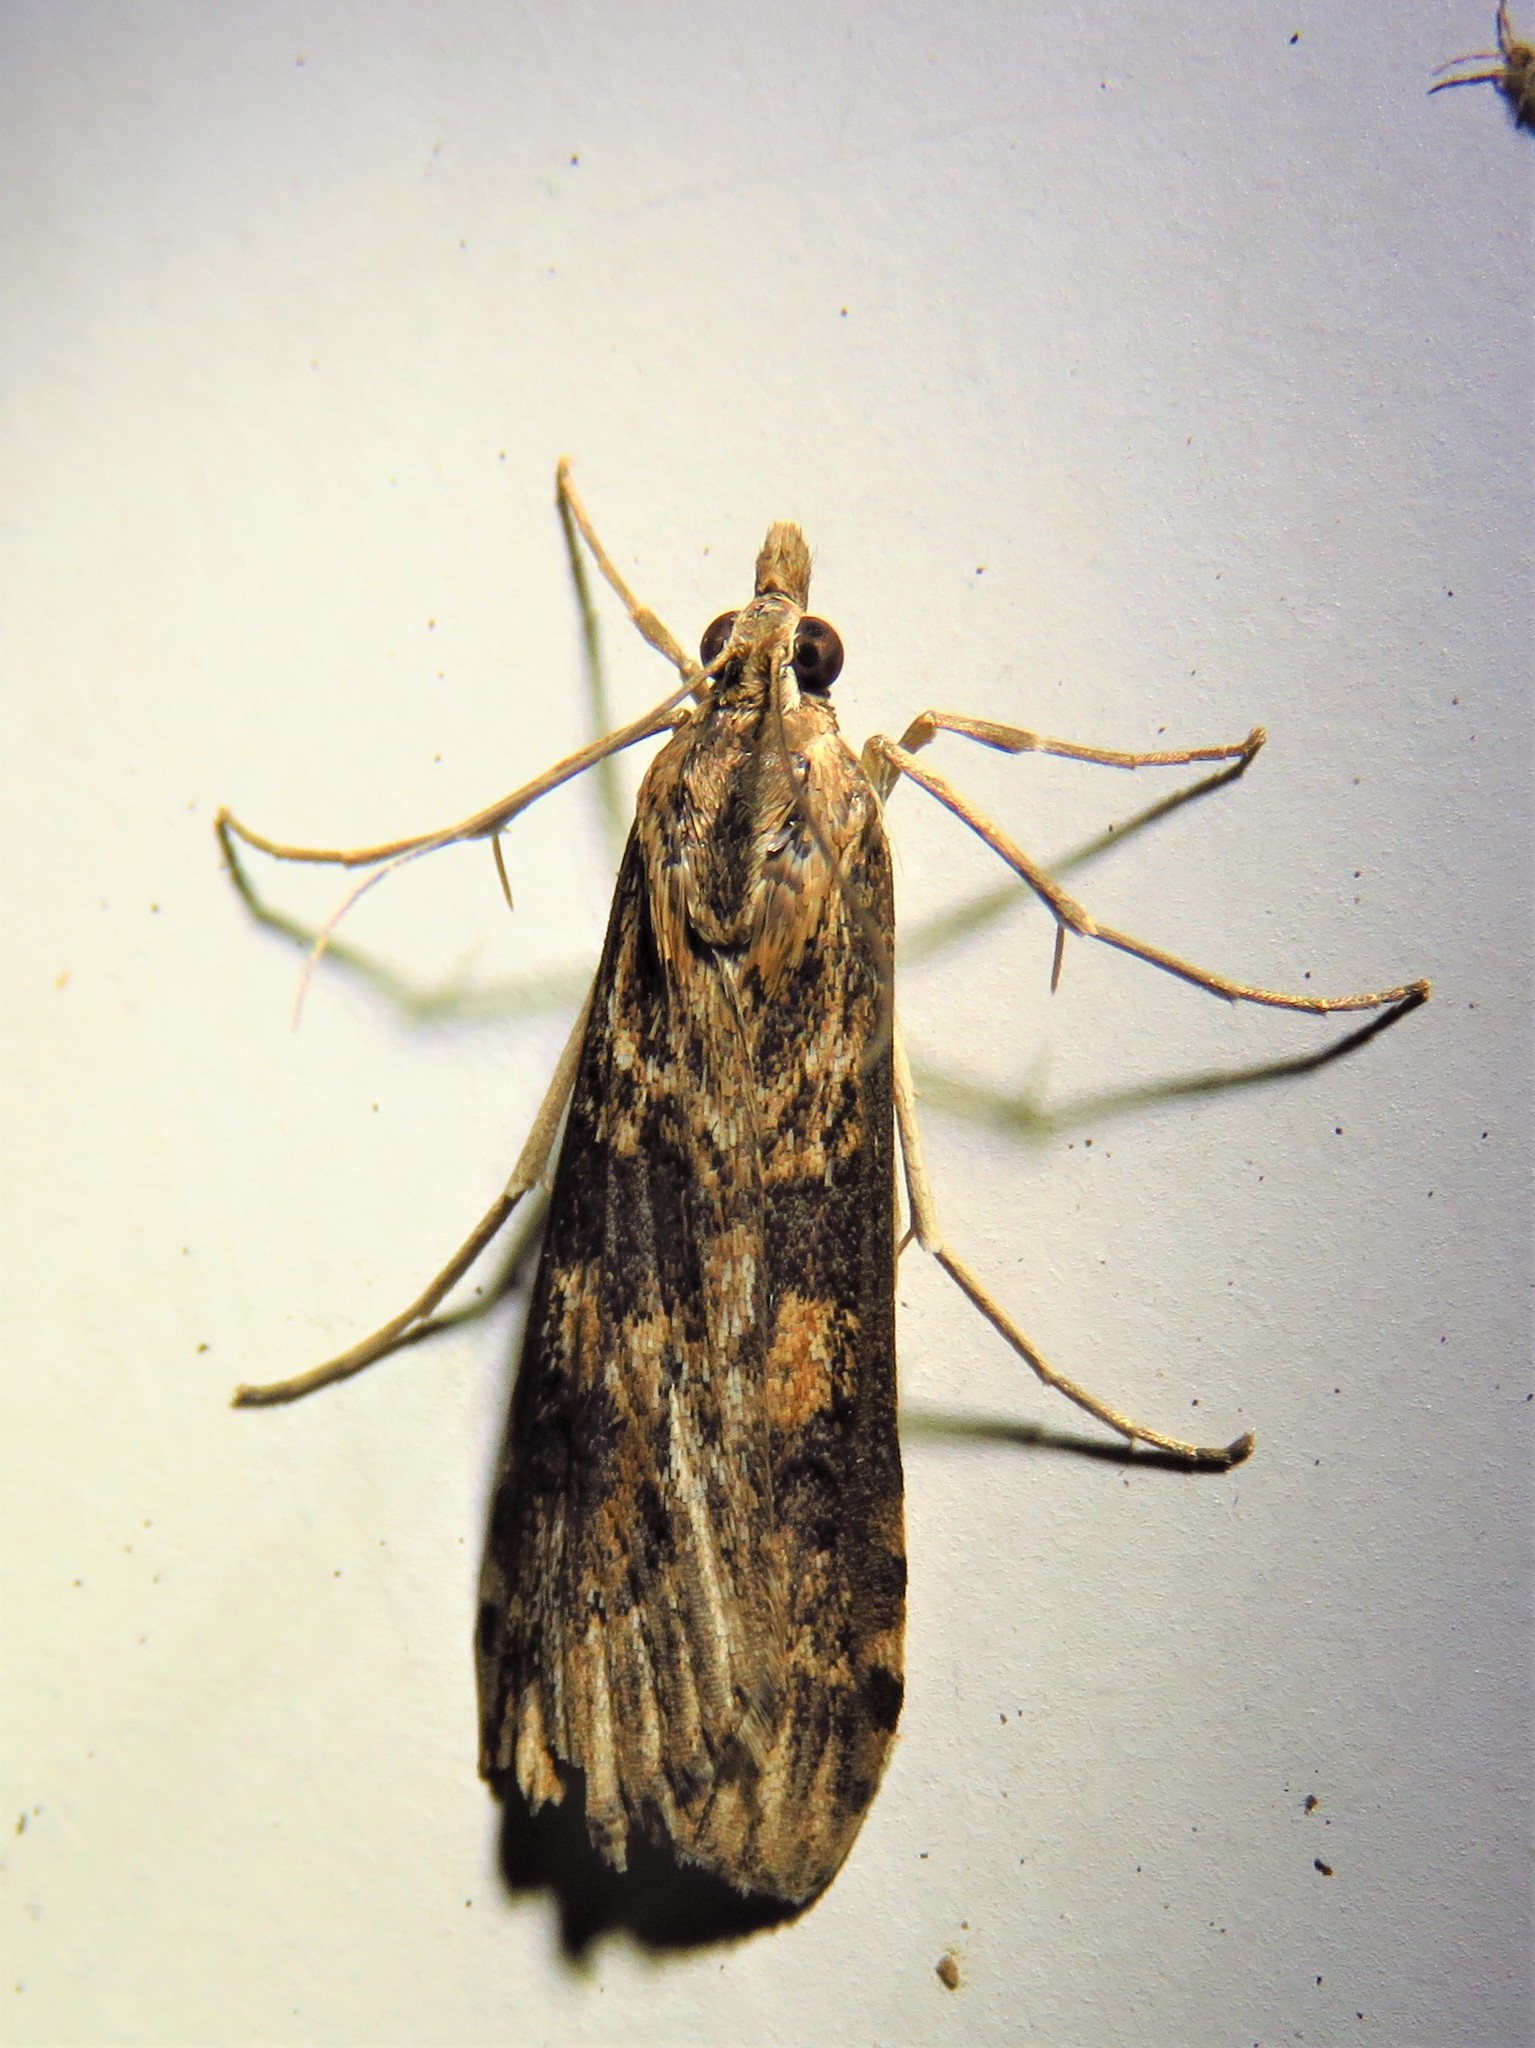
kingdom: Animalia
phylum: Arthropoda
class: Insecta
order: Lepidoptera
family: Crambidae
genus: Nomophila
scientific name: Nomophila nearctica
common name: American rush veneer
